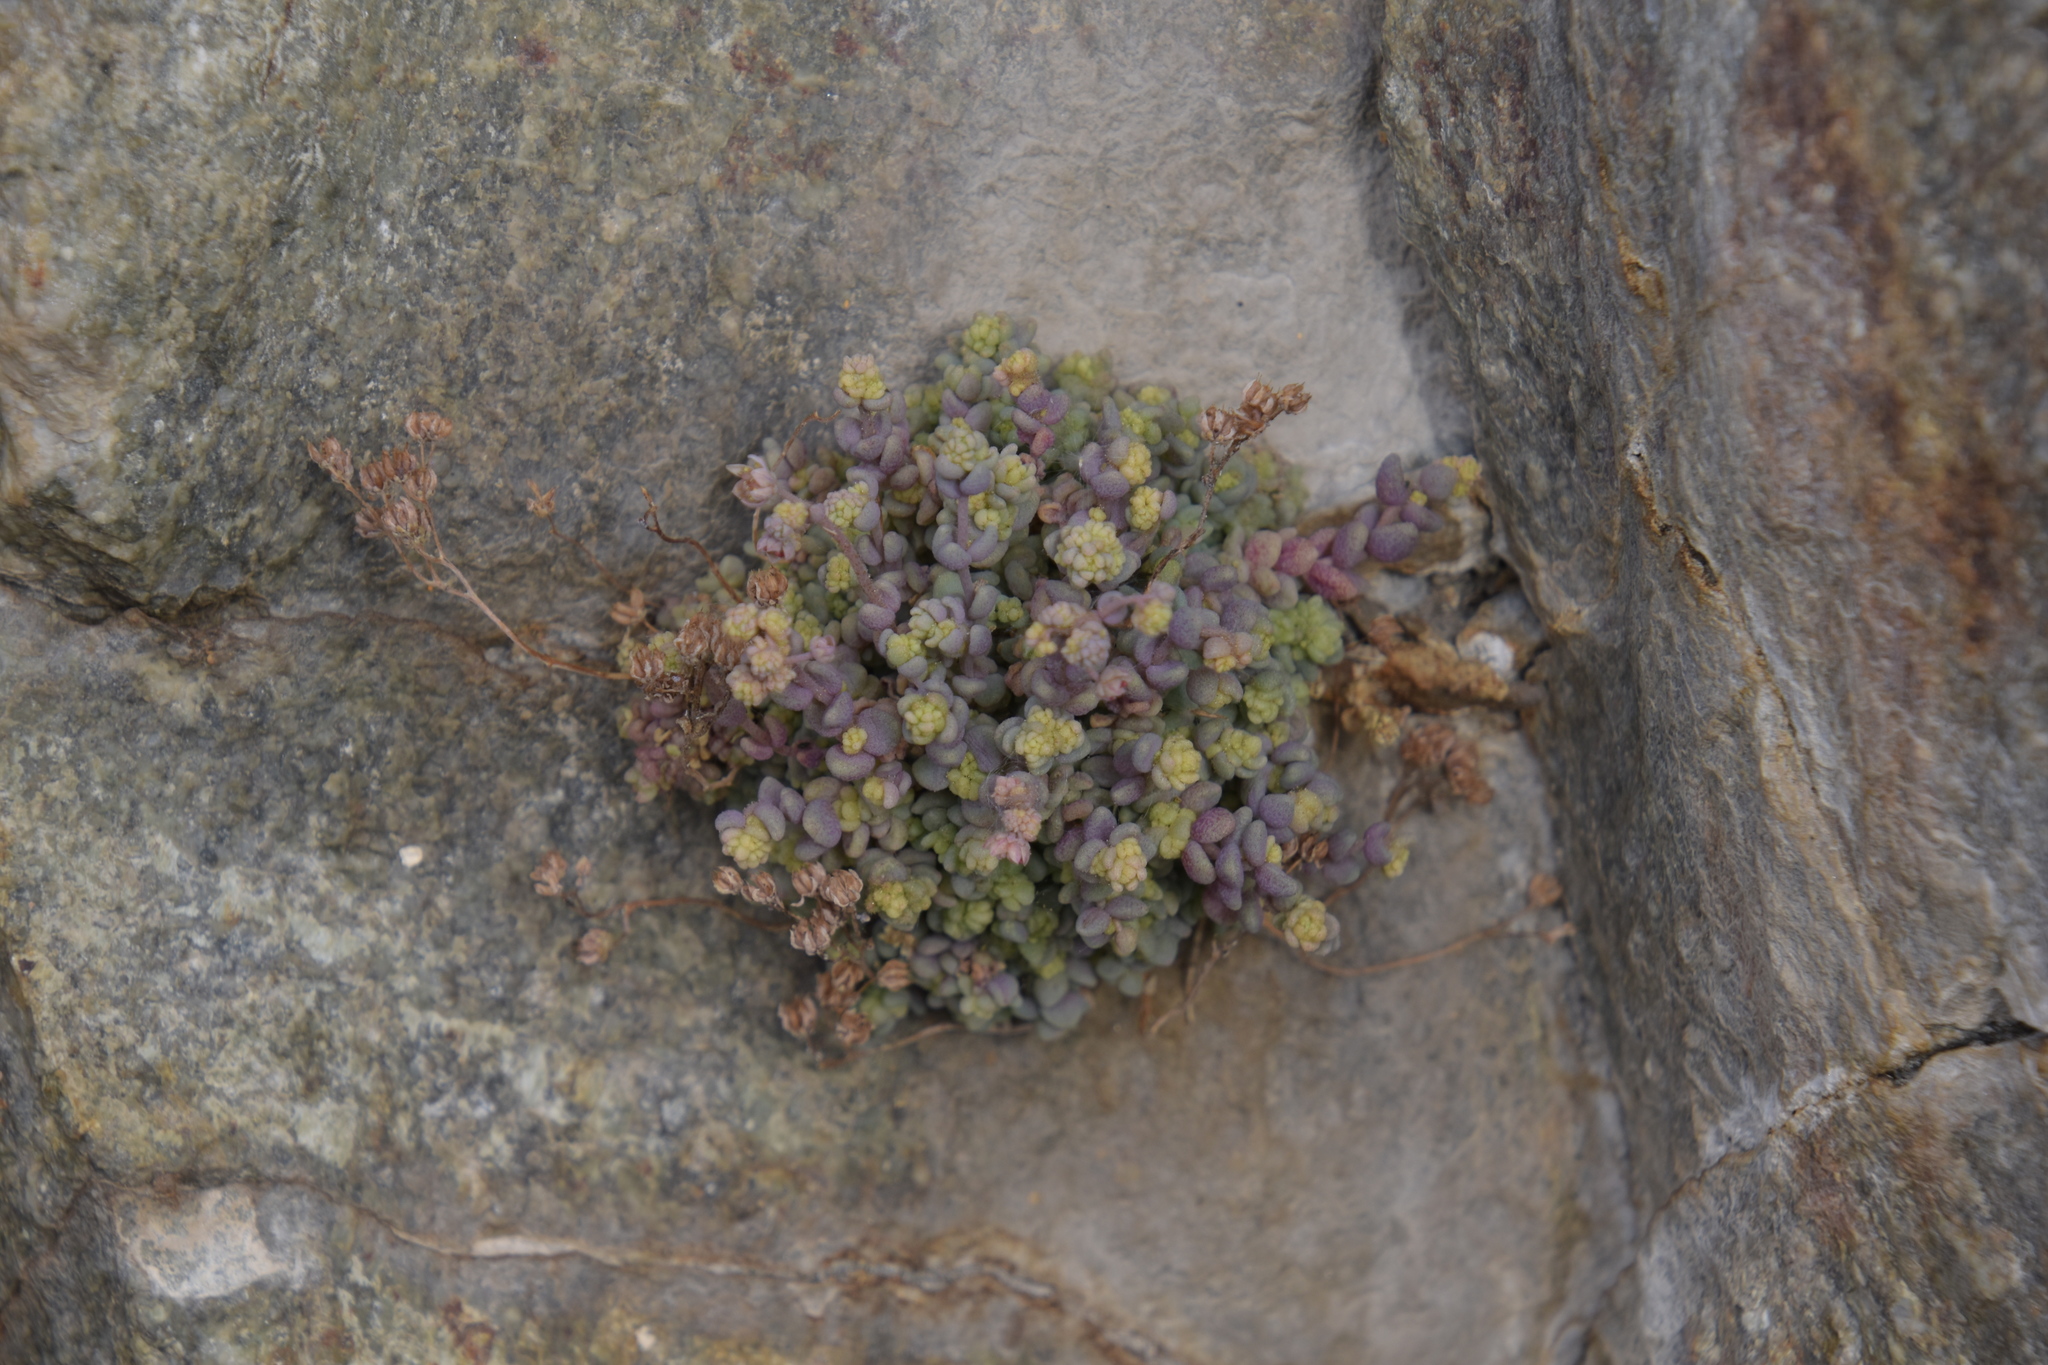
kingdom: Plantae
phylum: Tracheophyta
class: Magnoliopsida
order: Saxifragales
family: Crassulaceae
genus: Sedum
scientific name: Sedum dasyphyllum
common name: Thick-leaf stonecrop
